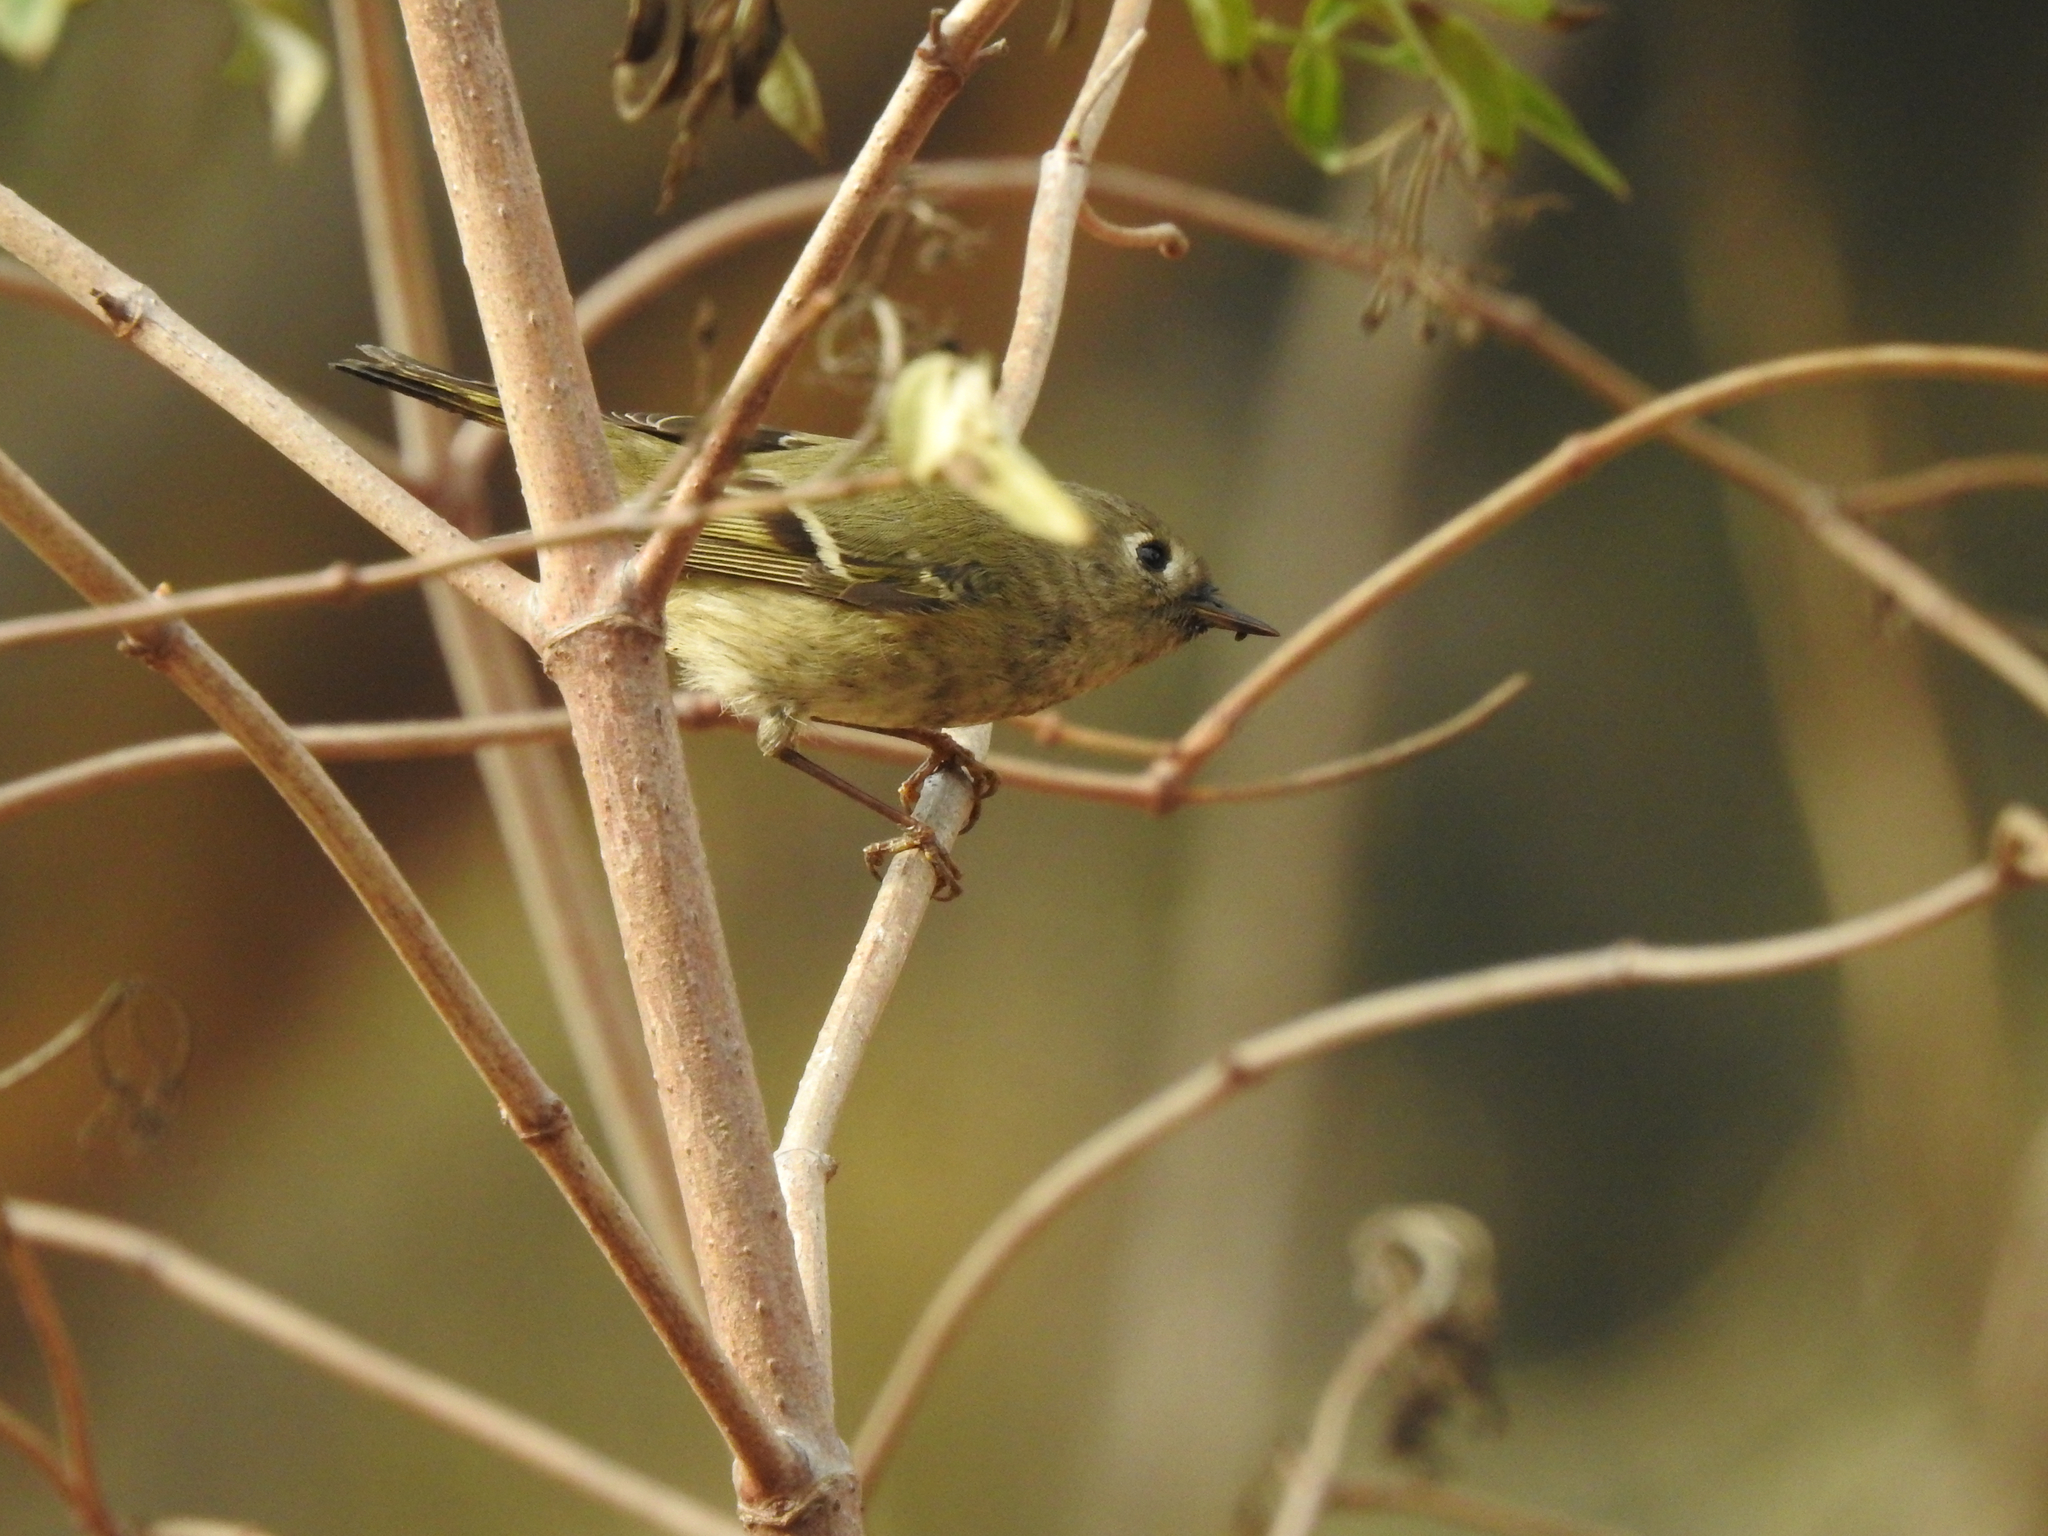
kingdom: Animalia
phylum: Chordata
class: Aves
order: Passeriformes
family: Regulidae
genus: Regulus
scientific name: Regulus calendula
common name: Ruby-crowned kinglet
